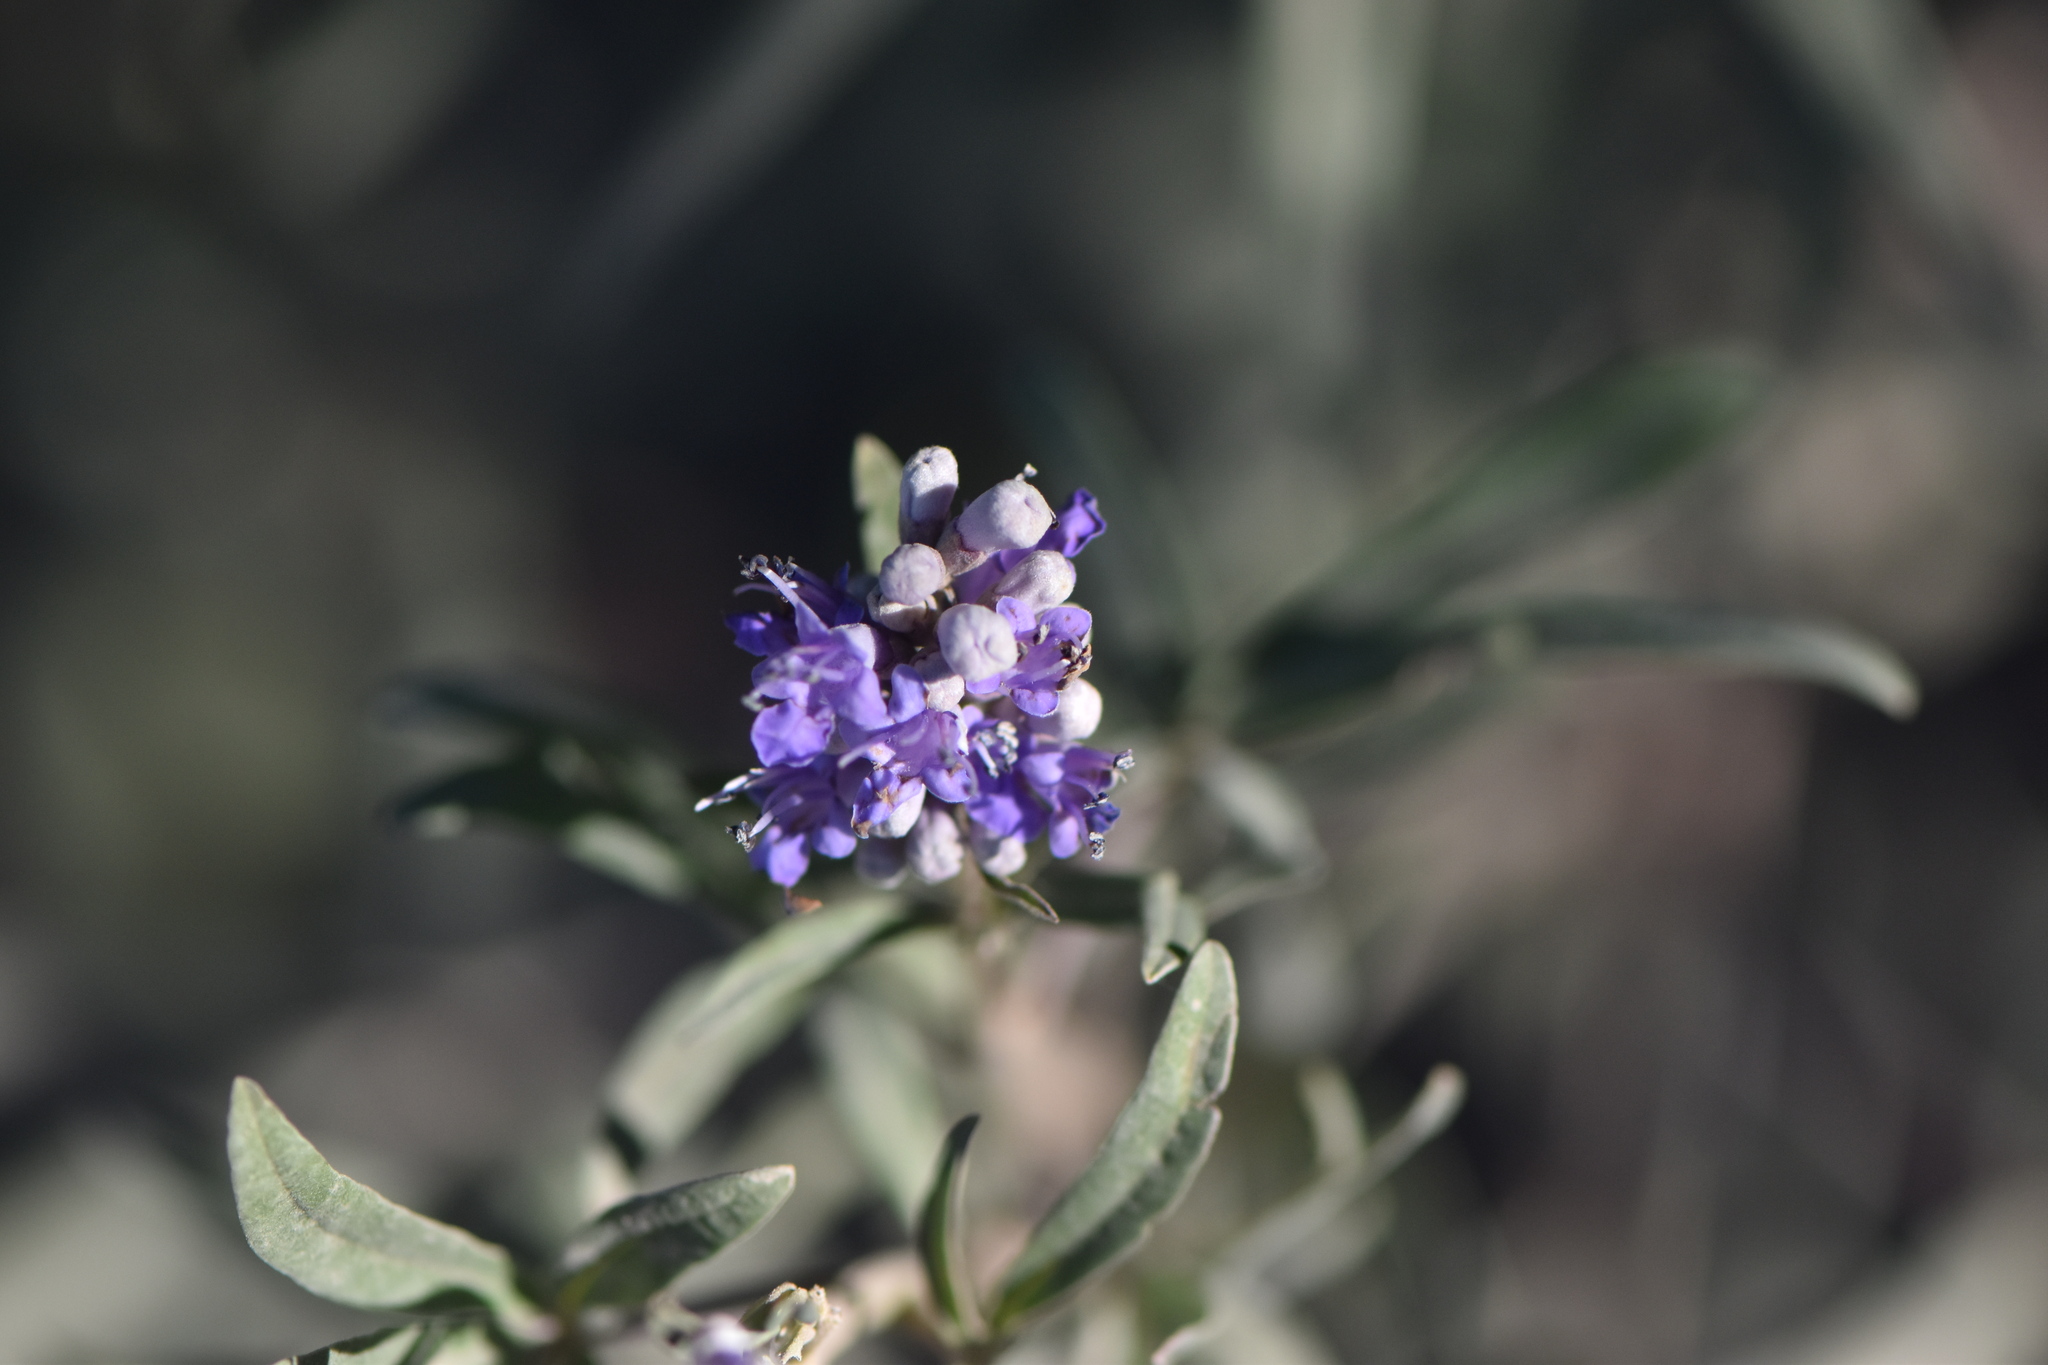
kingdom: Plantae
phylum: Tracheophyta
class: Magnoliopsida
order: Lamiales
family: Lamiaceae
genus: Vitex
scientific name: Vitex agnus-castus
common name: Chasteberry
